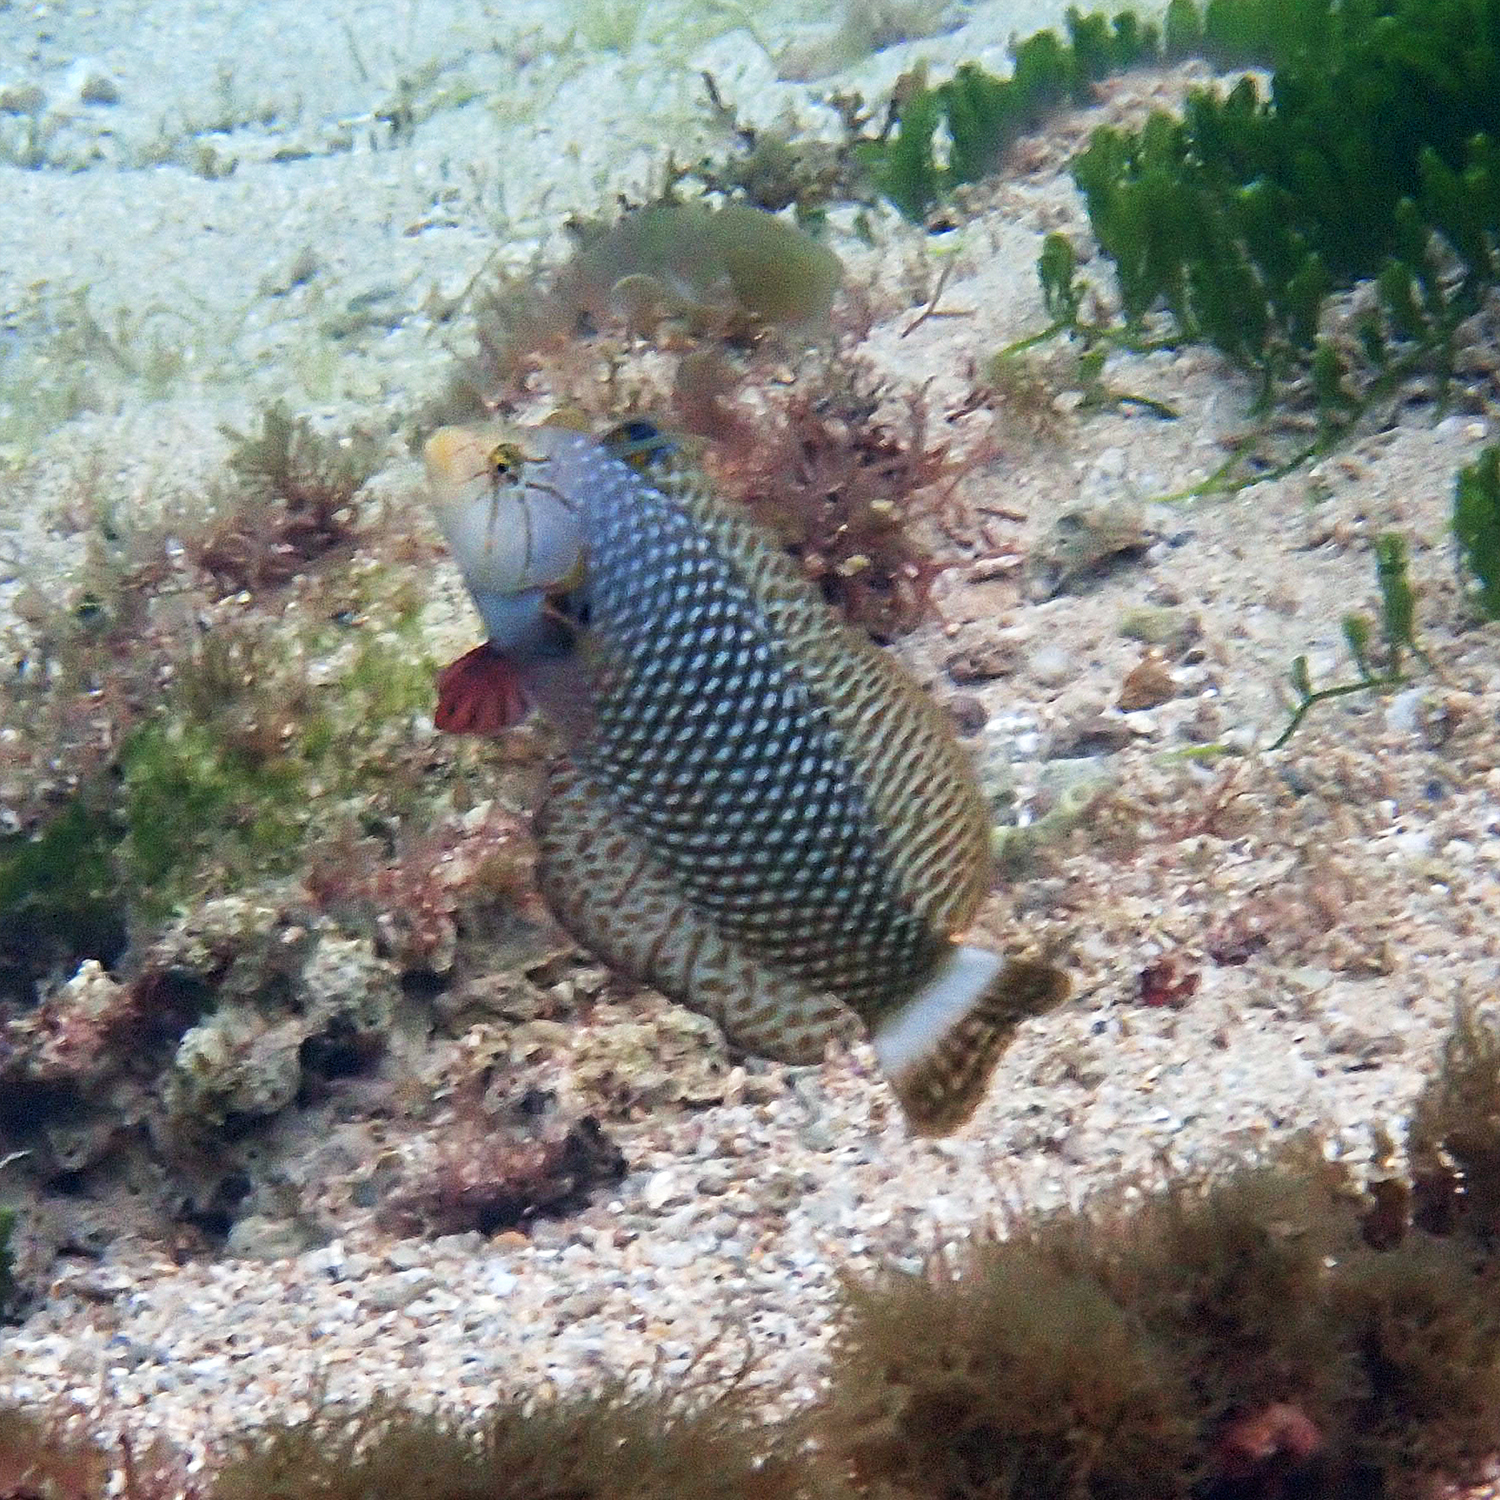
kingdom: Animalia
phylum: Chordata
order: Perciformes
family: Labridae
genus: Novaculichthys
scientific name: Novaculichthys taeniourus
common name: Rockmover wrasse
